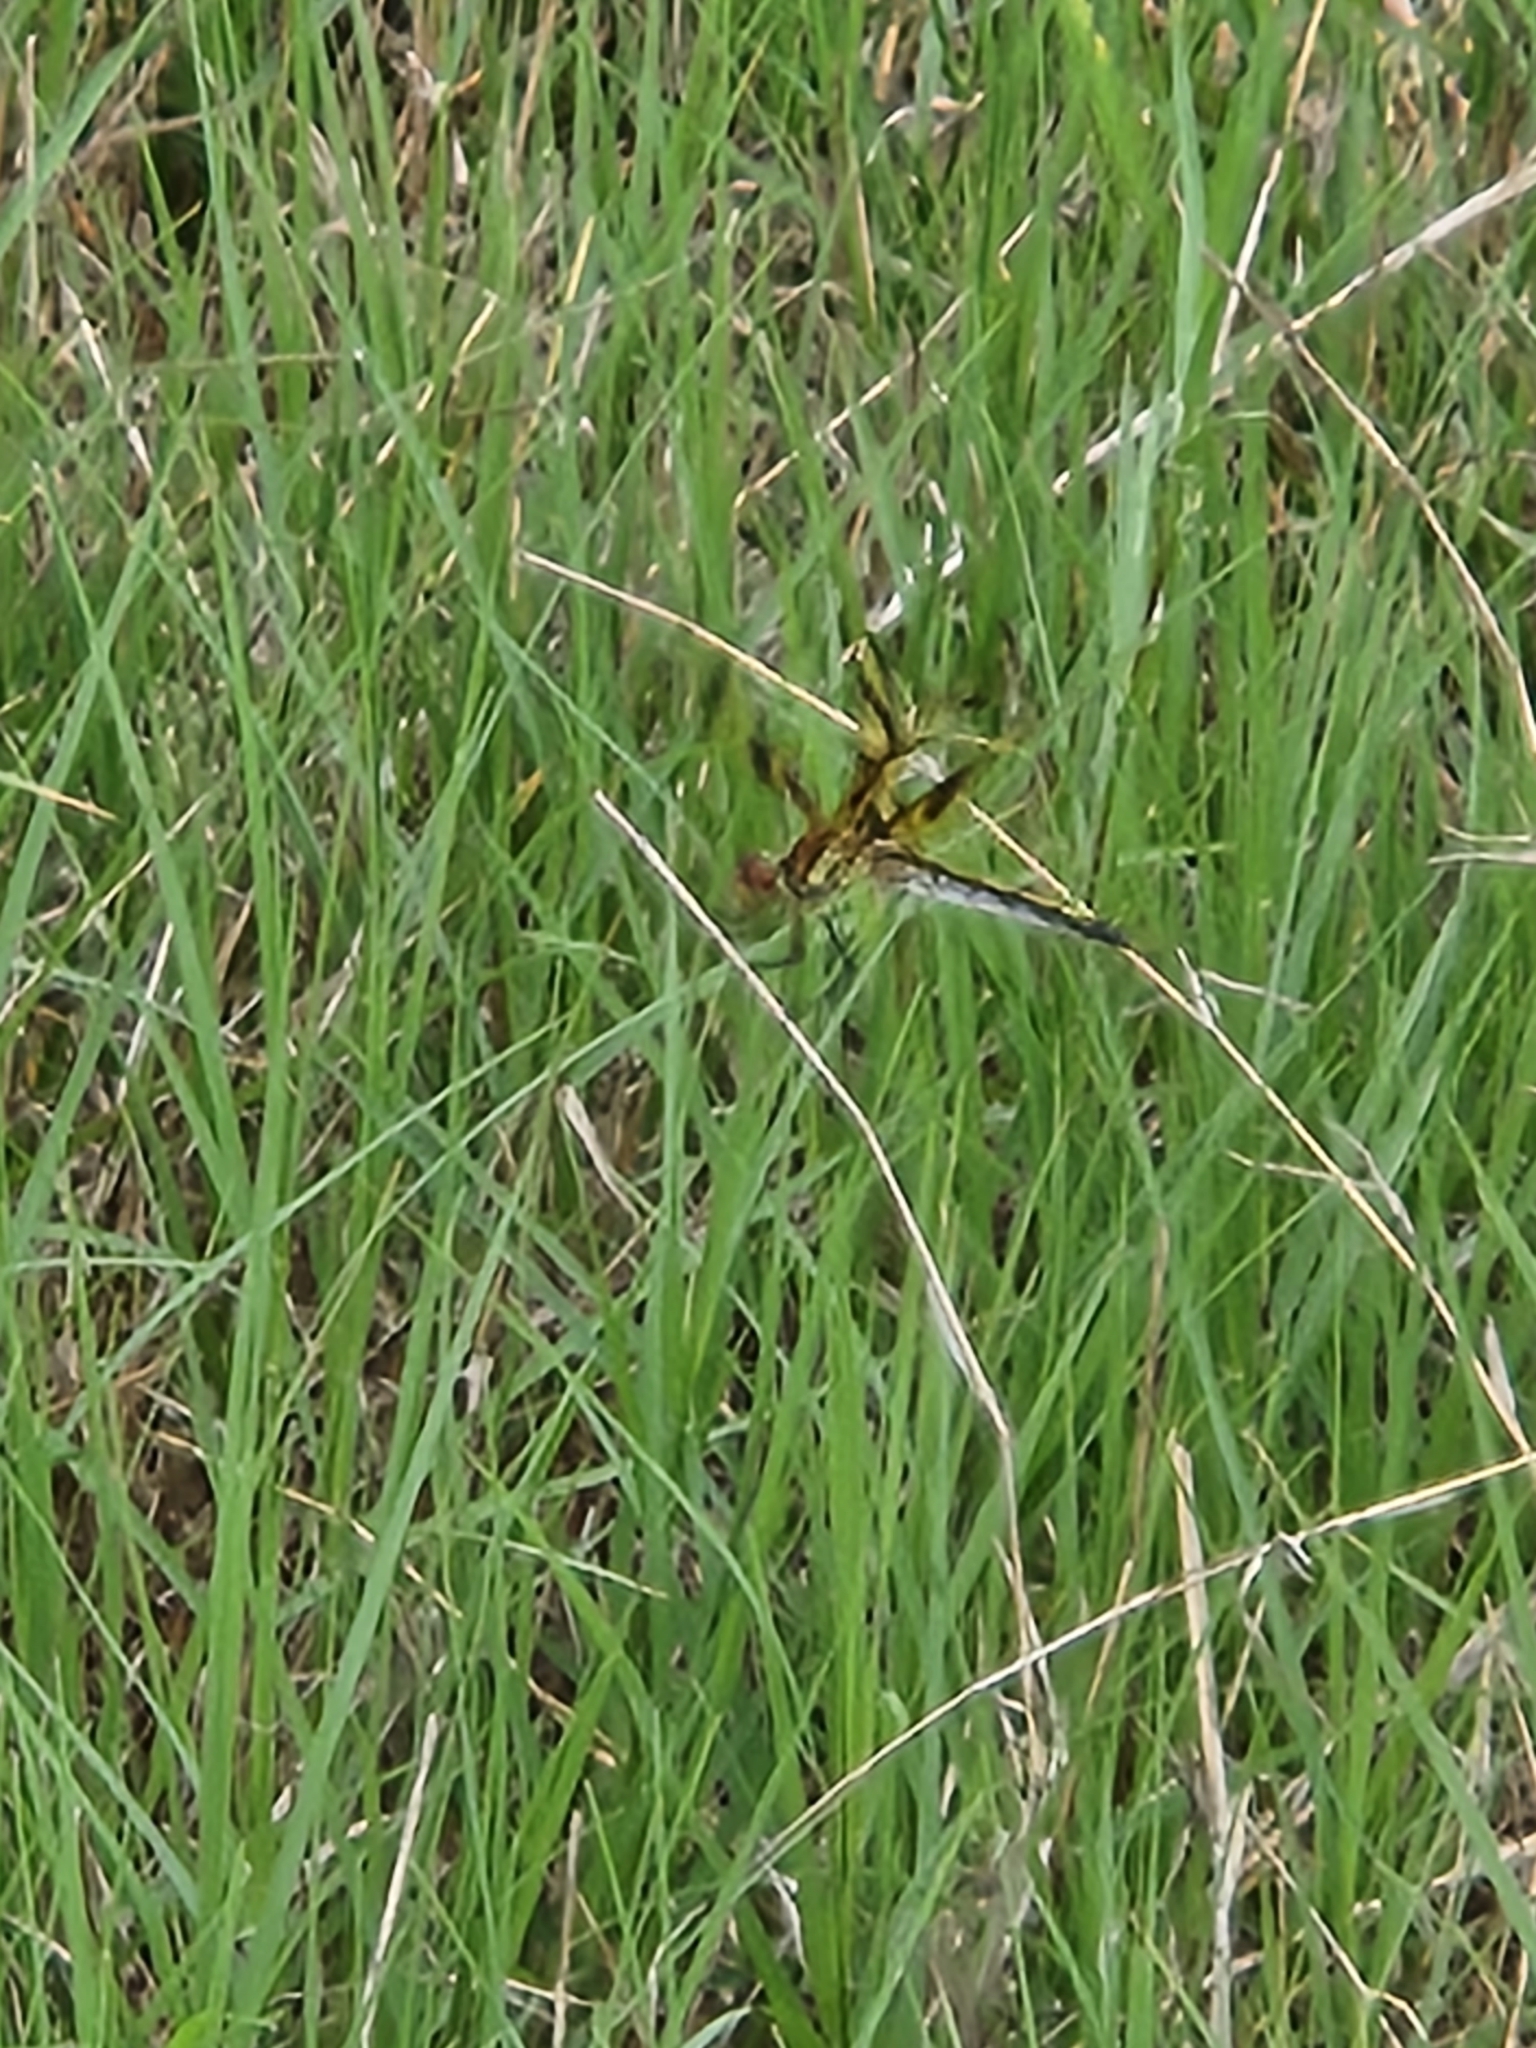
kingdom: Animalia
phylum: Arthropoda
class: Insecta
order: Odonata
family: Libellulidae
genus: Celithemis
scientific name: Celithemis eponina
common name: Halloween pennant
